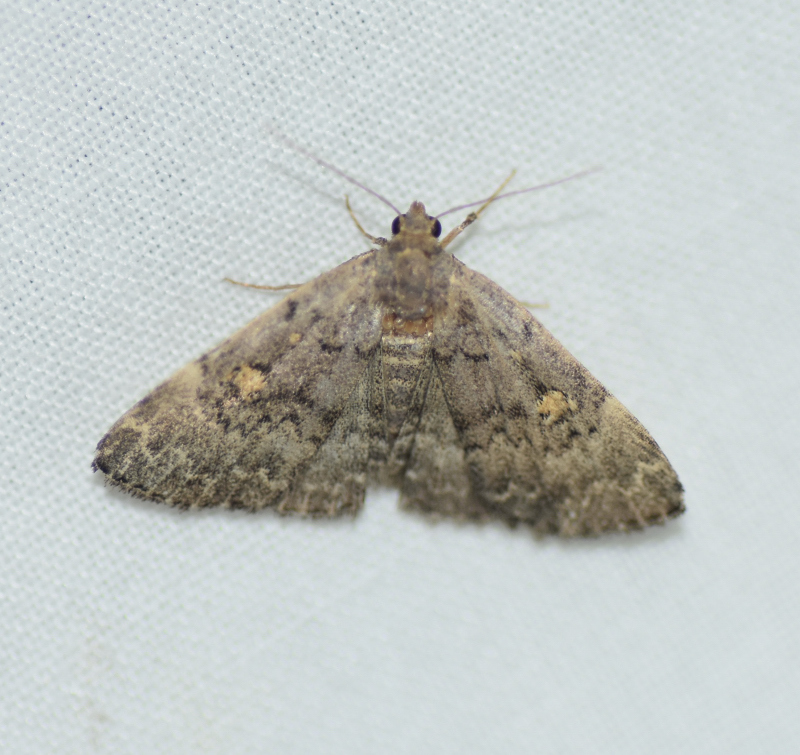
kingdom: Animalia
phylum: Arthropoda
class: Insecta
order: Lepidoptera
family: Erebidae
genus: Idia
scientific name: Idia aemula
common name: Common idia moth
